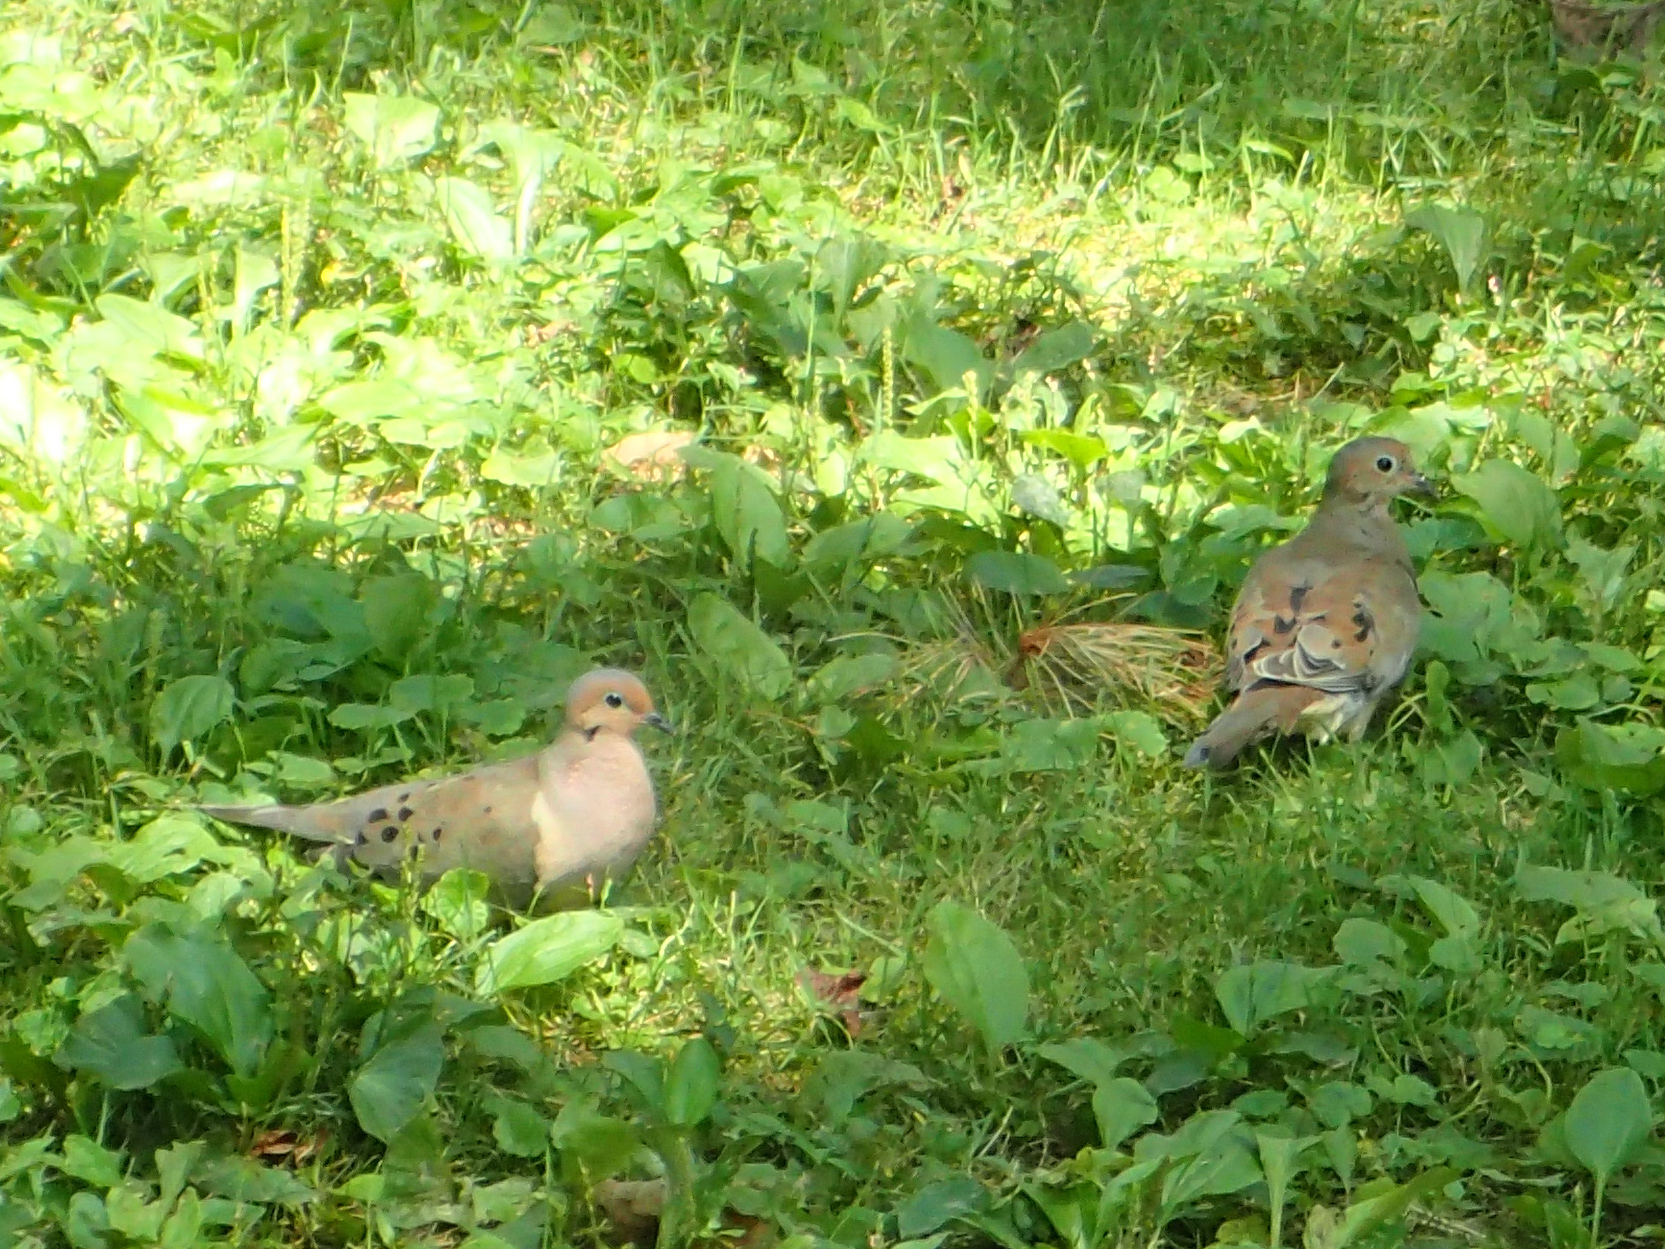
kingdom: Animalia
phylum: Chordata
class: Aves
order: Columbiformes
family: Columbidae
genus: Zenaida
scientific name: Zenaida macroura
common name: Mourning dove
